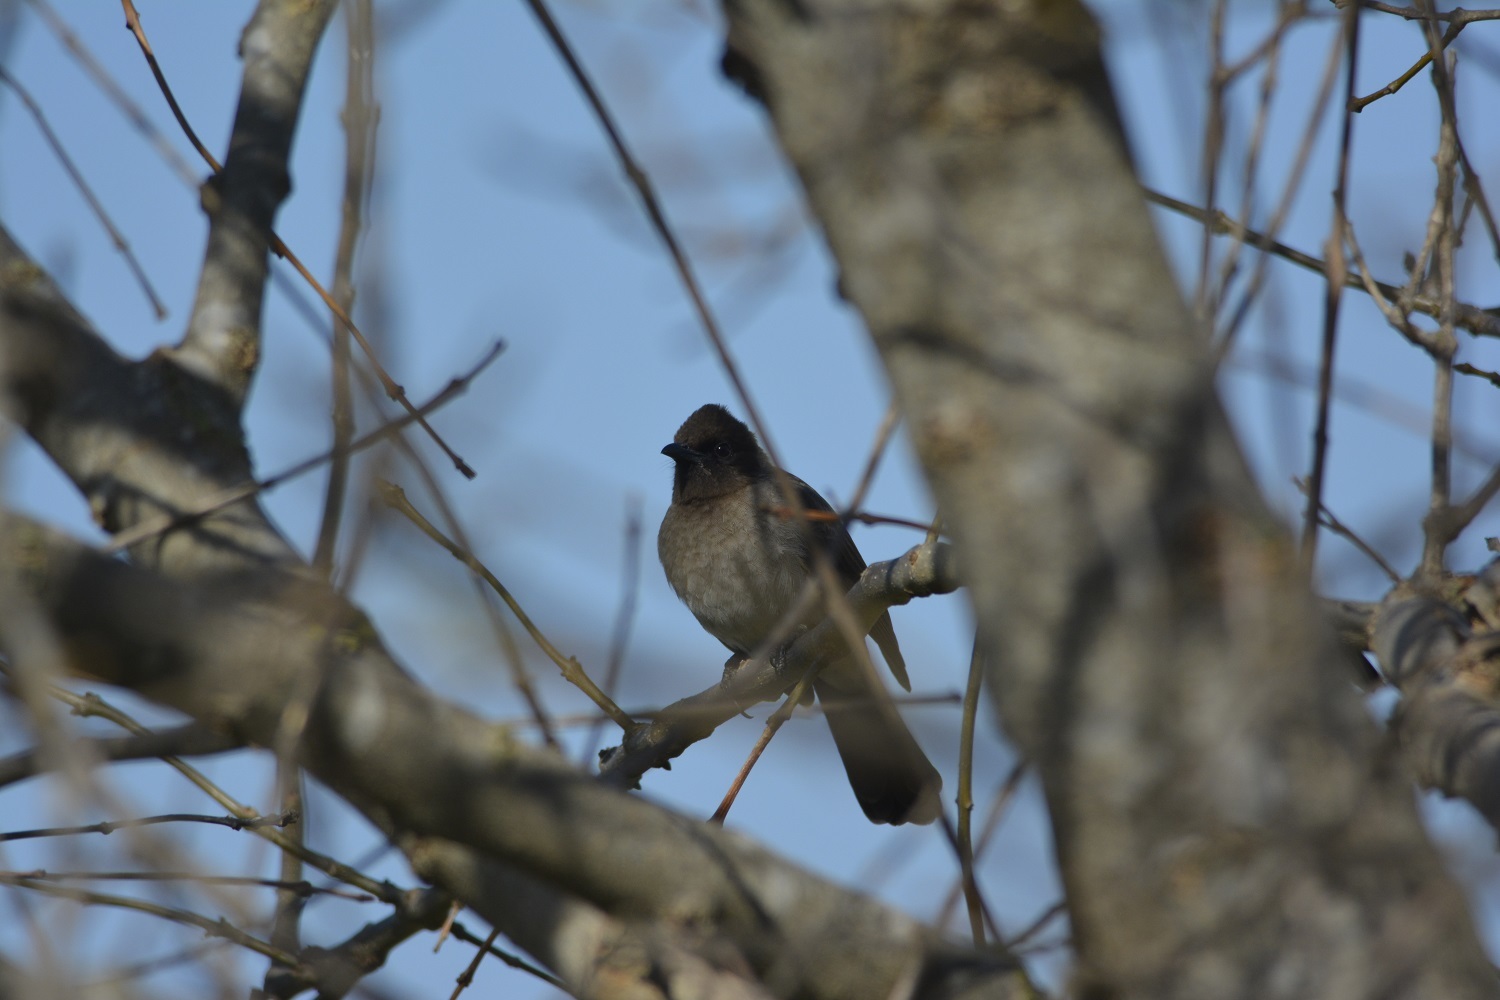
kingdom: Animalia
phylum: Chordata
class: Aves
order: Passeriformes
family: Pycnonotidae
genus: Pycnonotus
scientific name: Pycnonotus barbatus
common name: Common bulbul
